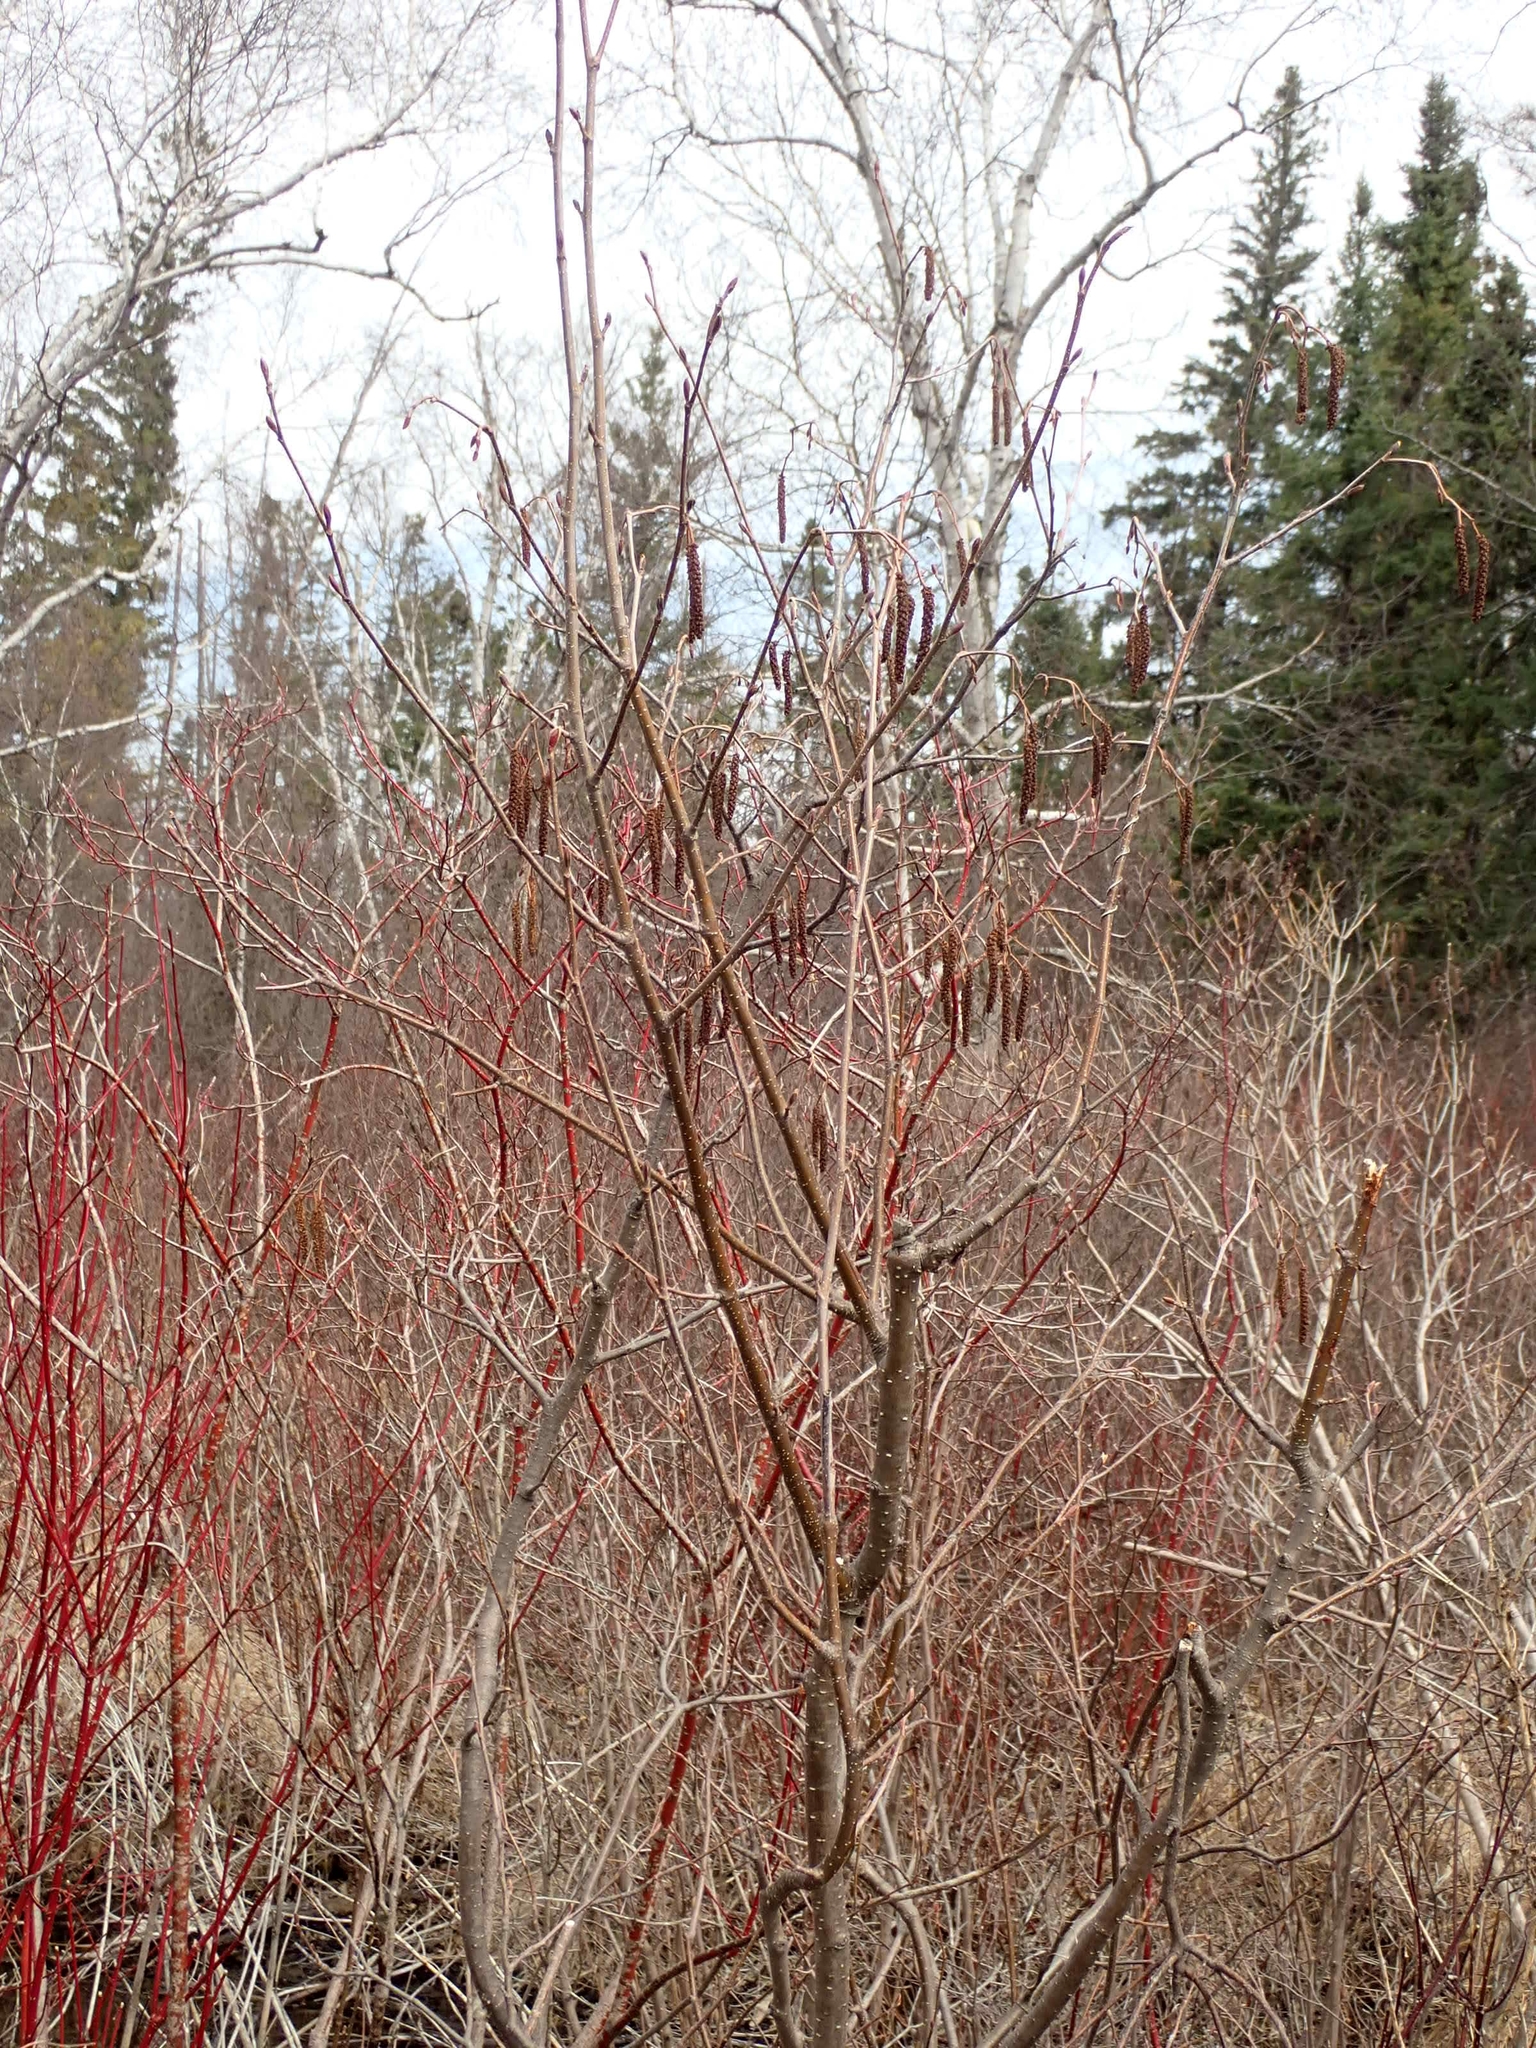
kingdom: Plantae
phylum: Tracheophyta
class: Magnoliopsida
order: Fagales
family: Betulaceae
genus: Alnus
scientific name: Alnus incana
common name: Grey alder
